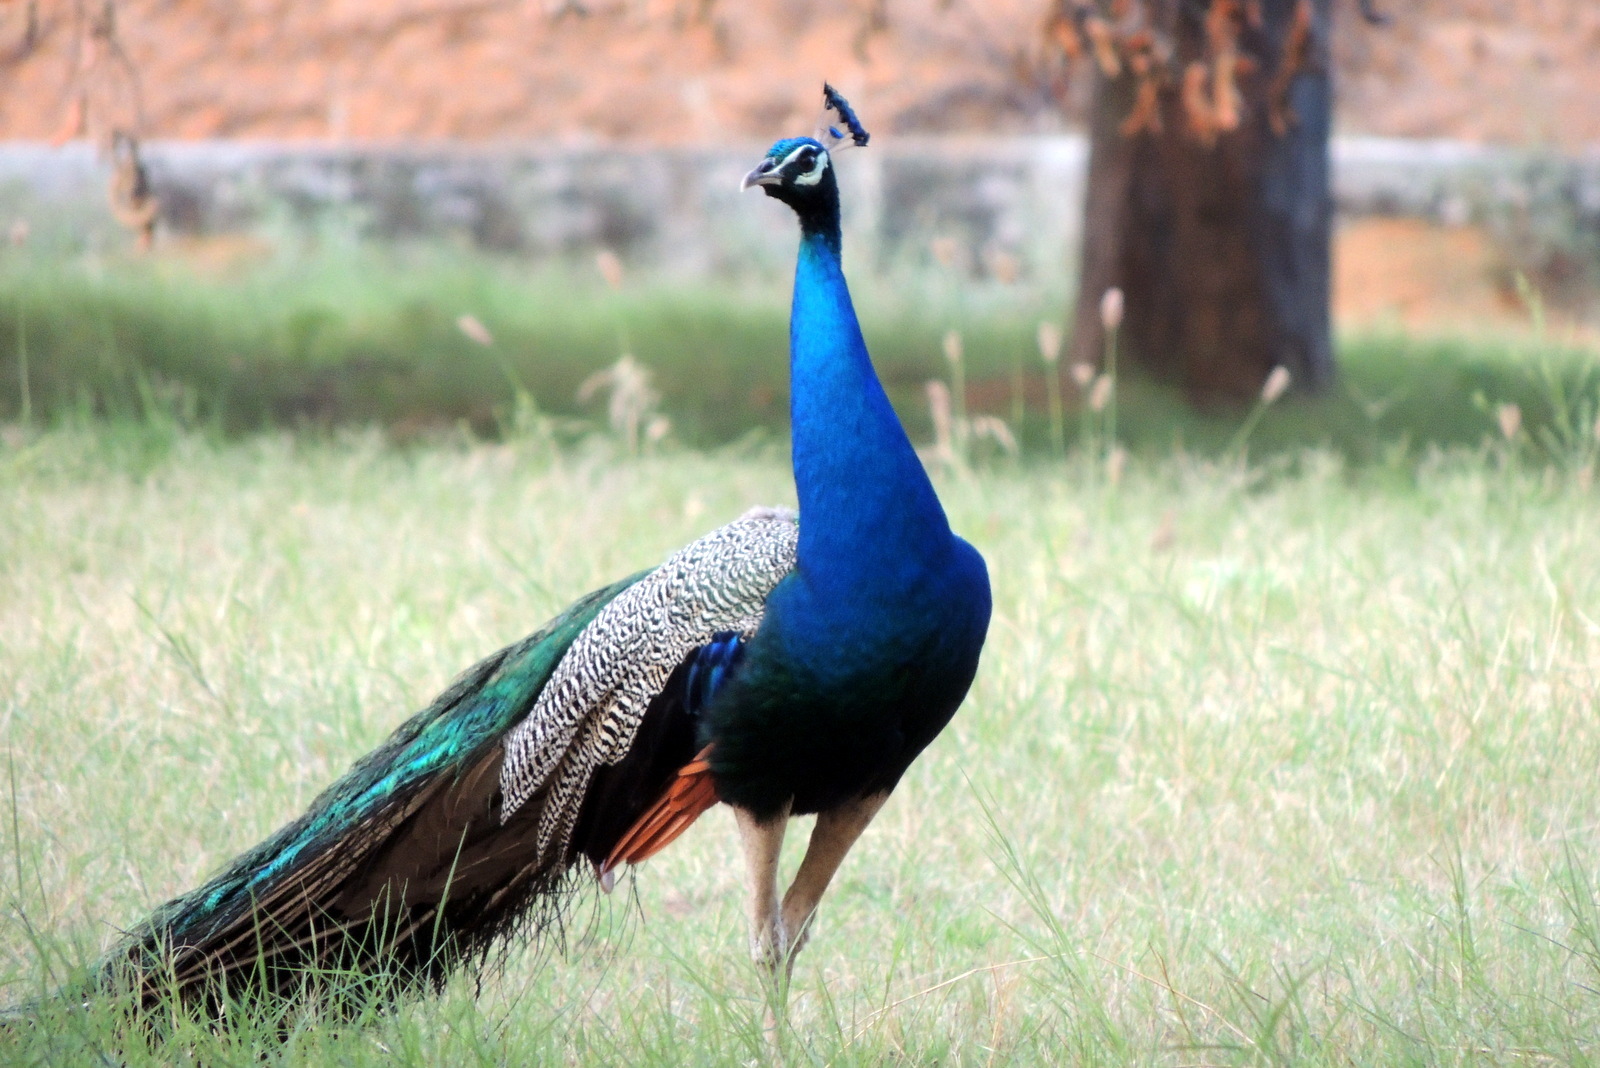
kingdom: Animalia
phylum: Chordata
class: Aves
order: Galliformes
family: Phasianidae
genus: Pavo
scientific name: Pavo cristatus
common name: Indian peafowl
